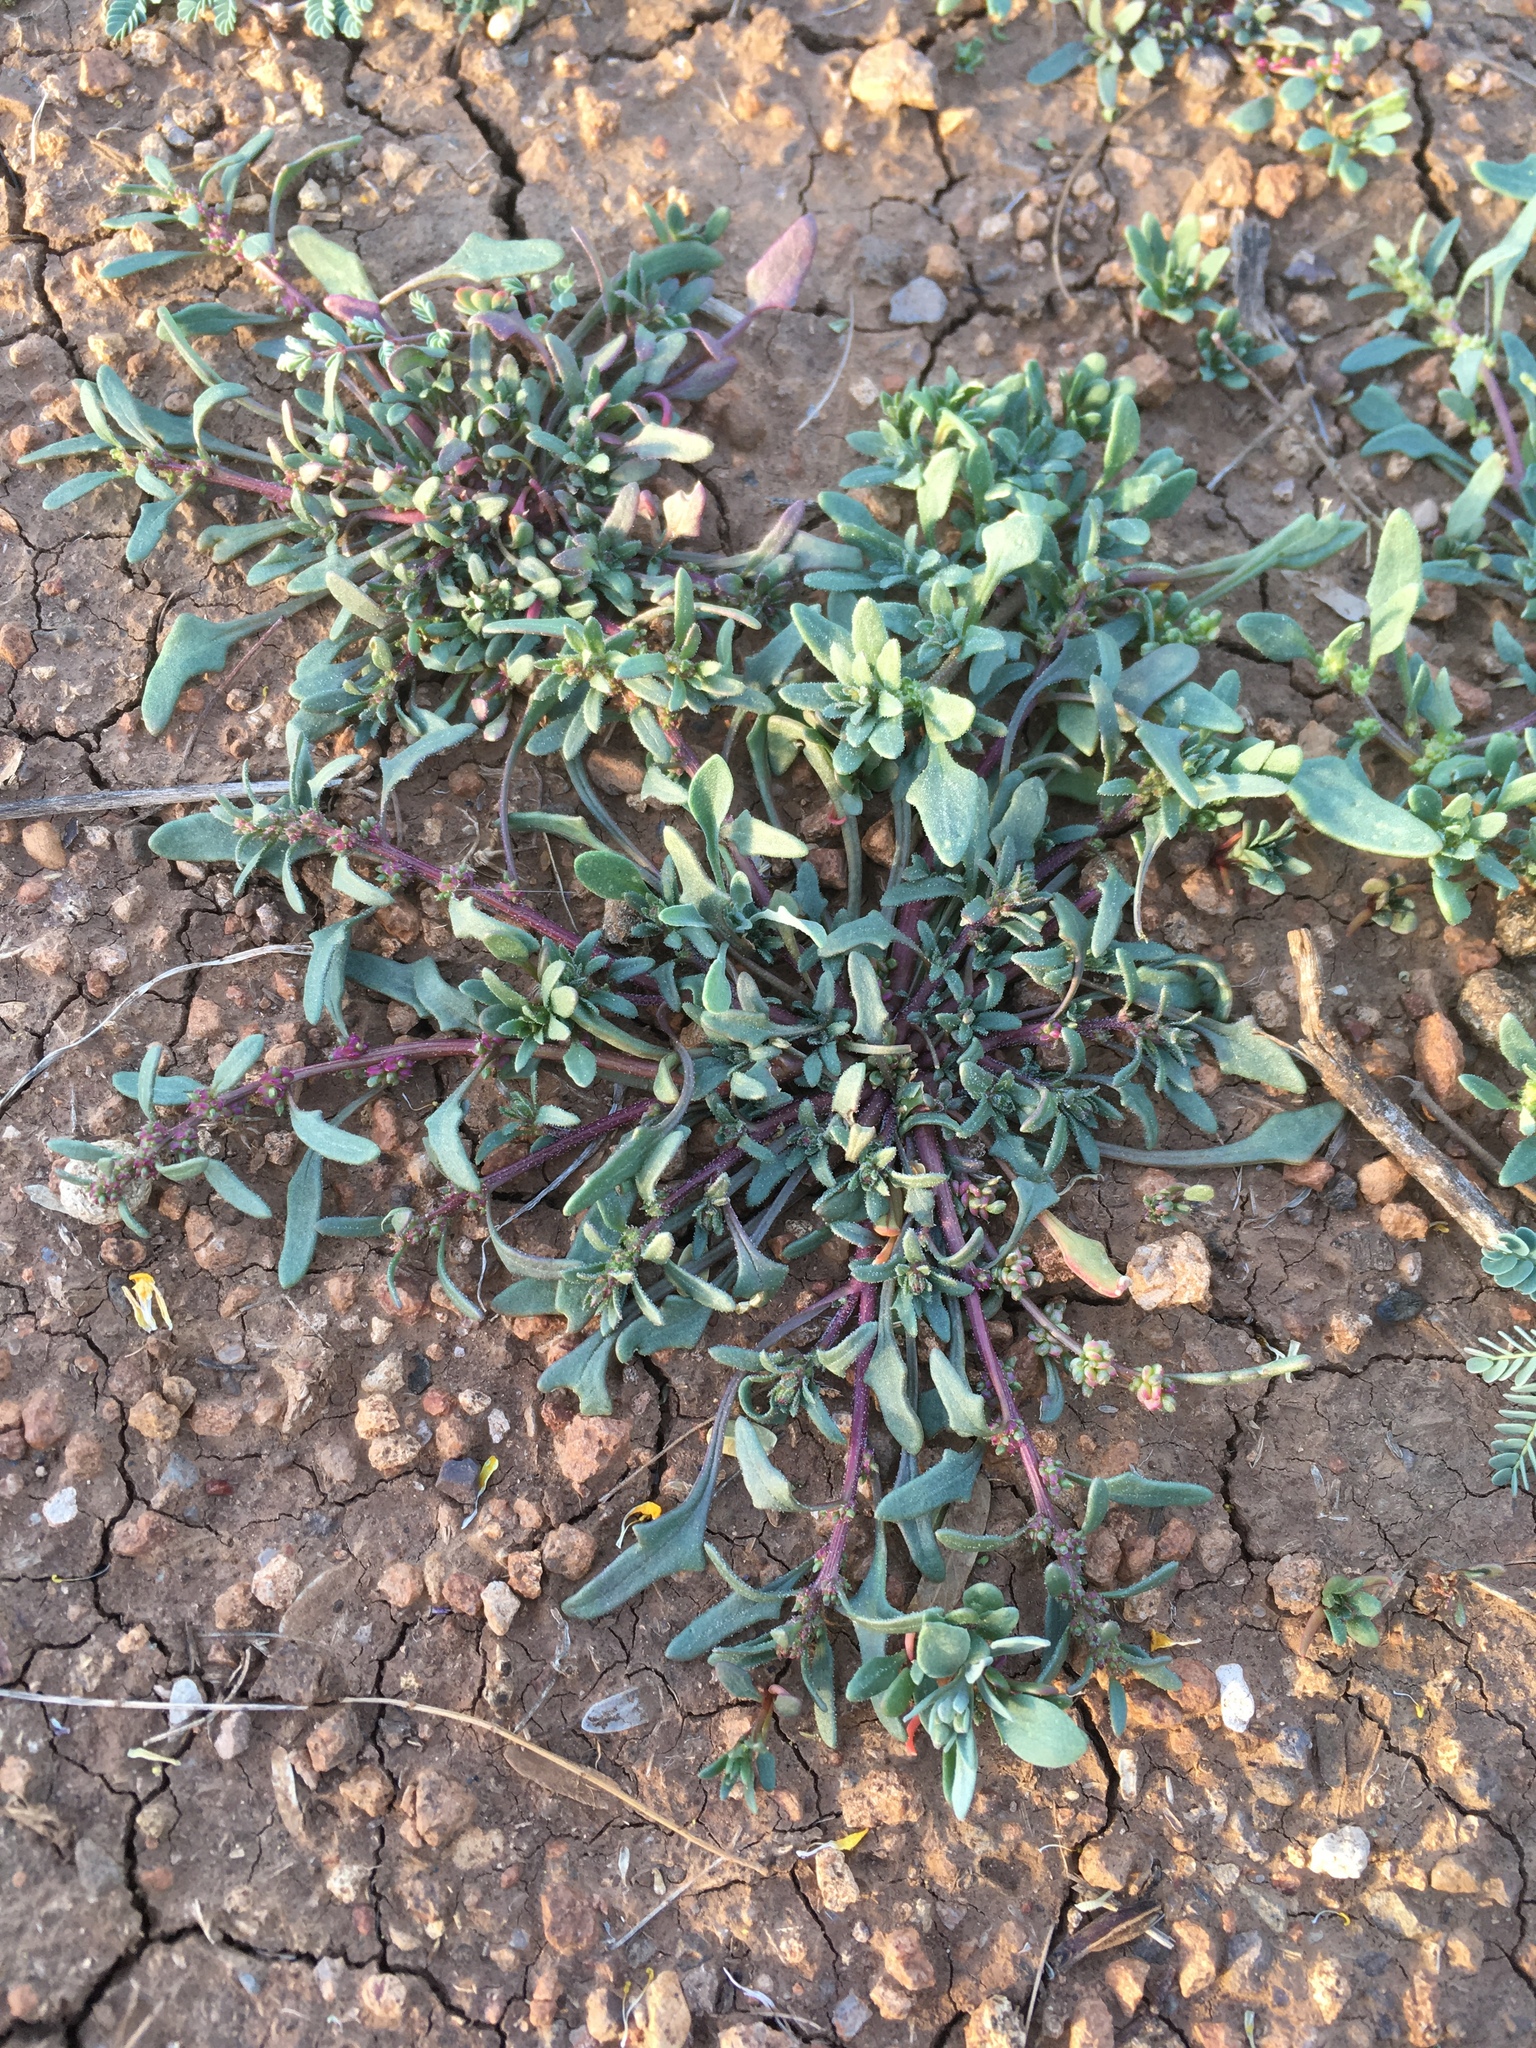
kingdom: Plantae
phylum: Tracheophyta
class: Magnoliopsida
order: Caryophyllales
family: Amaranthaceae
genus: Blitum
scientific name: Blitum nuttallianum
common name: Poverty-weed
